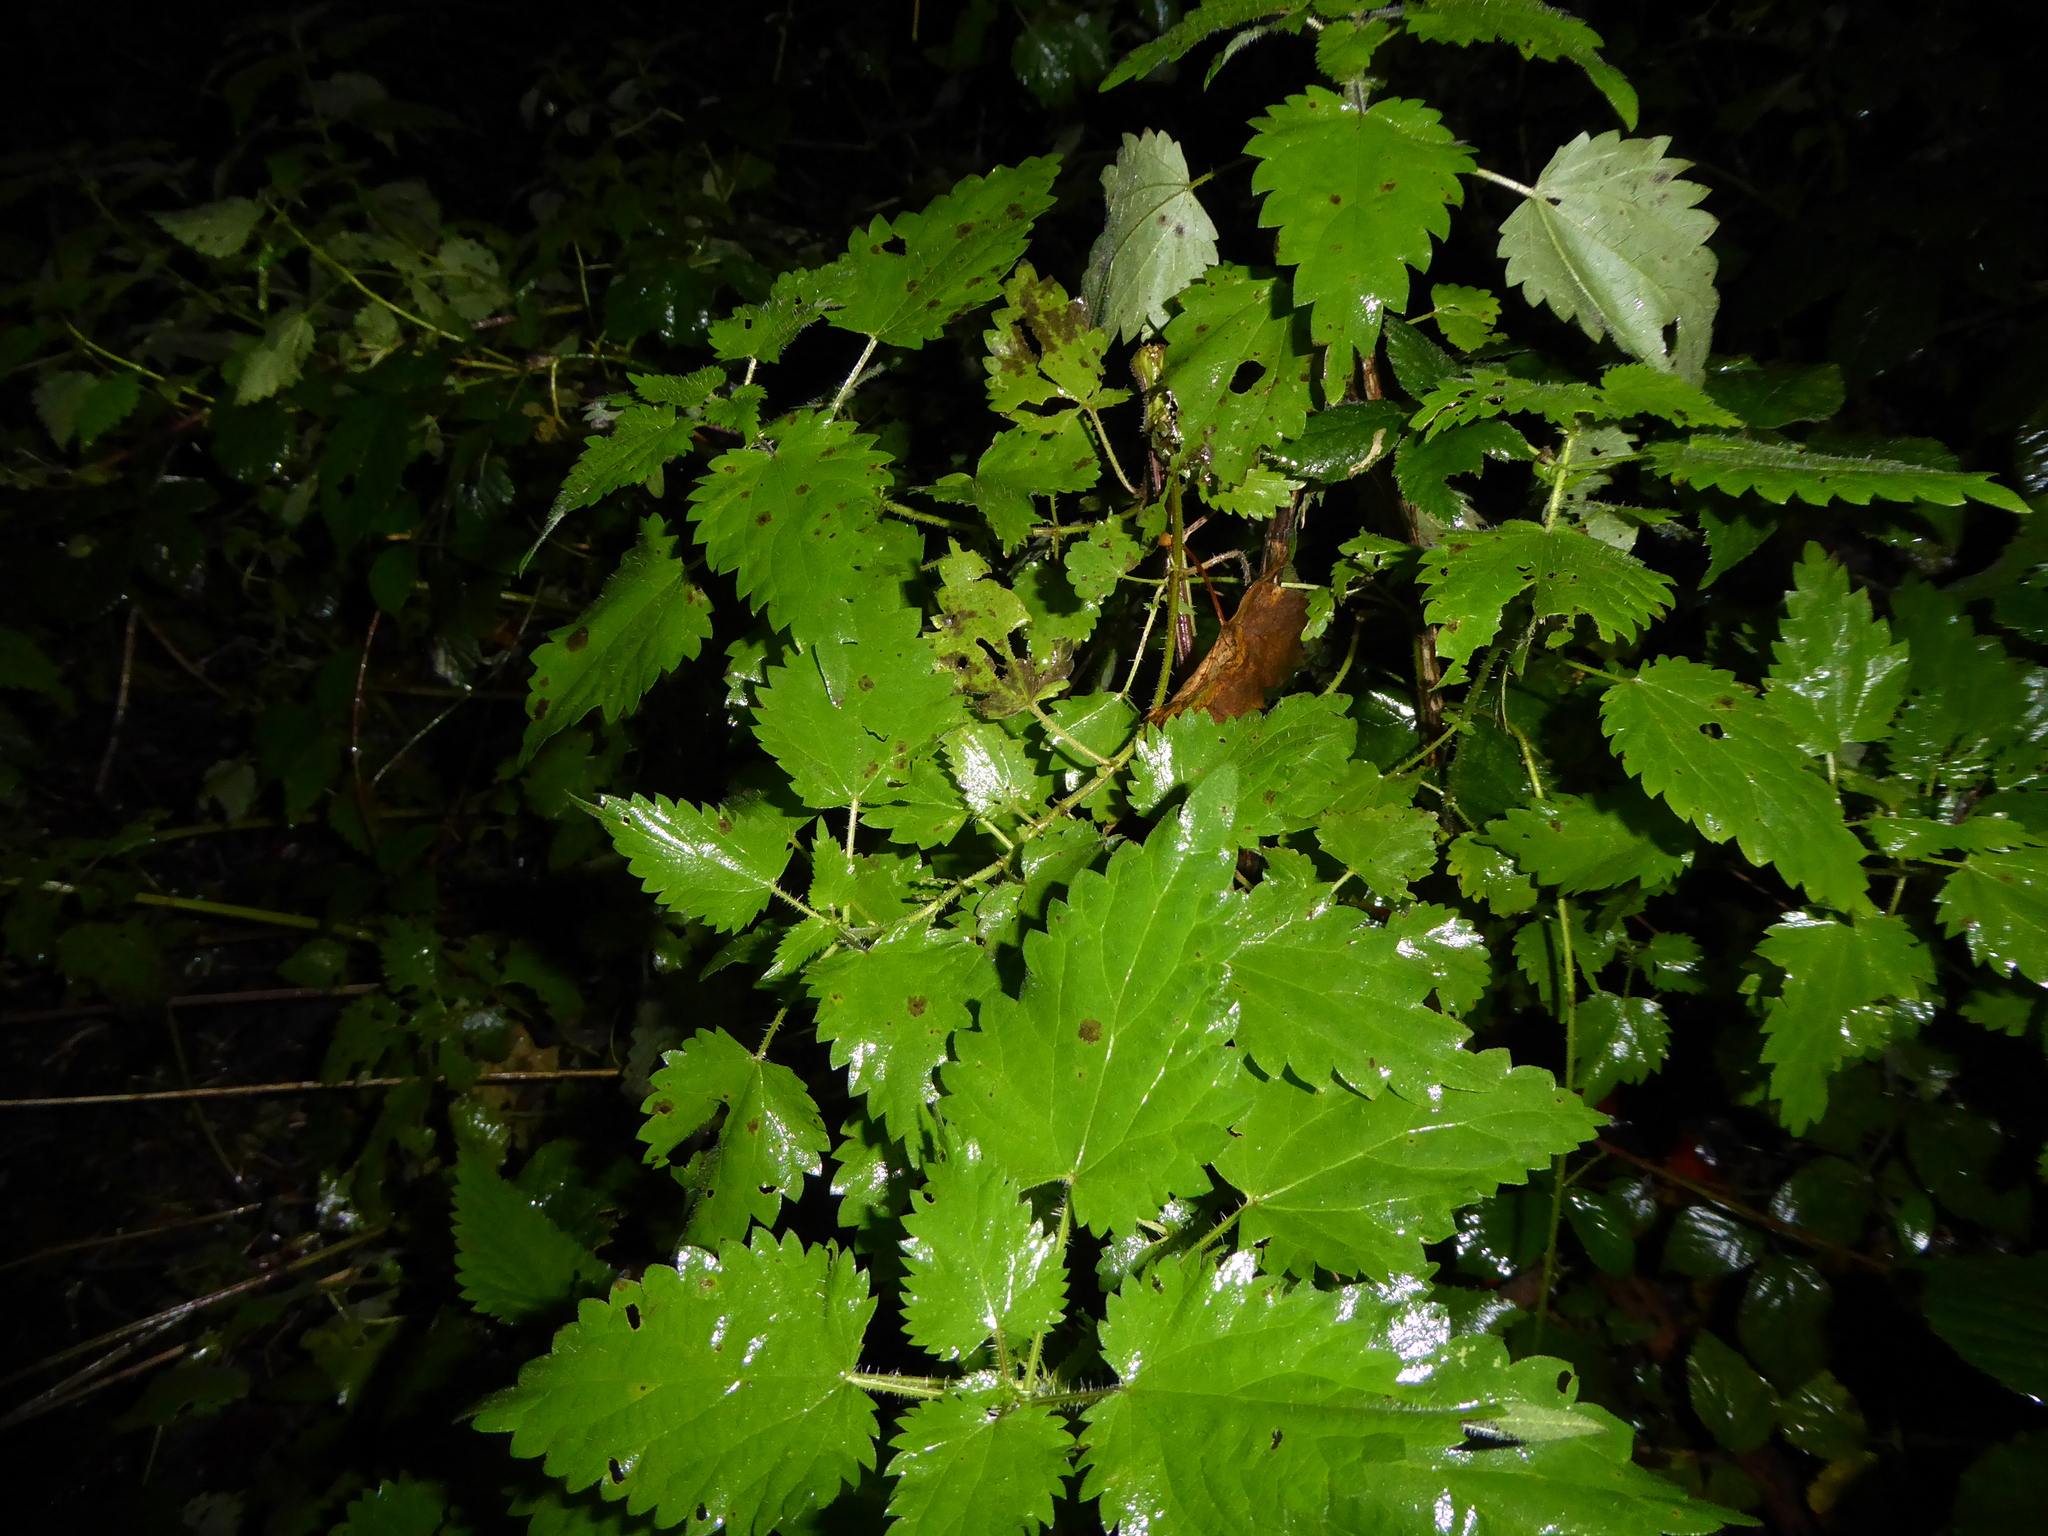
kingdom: Plantae
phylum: Tracheophyta
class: Magnoliopsida
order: Rosales
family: Urticaceae
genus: Urtica
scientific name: Urtica dioica
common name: Common nettle
